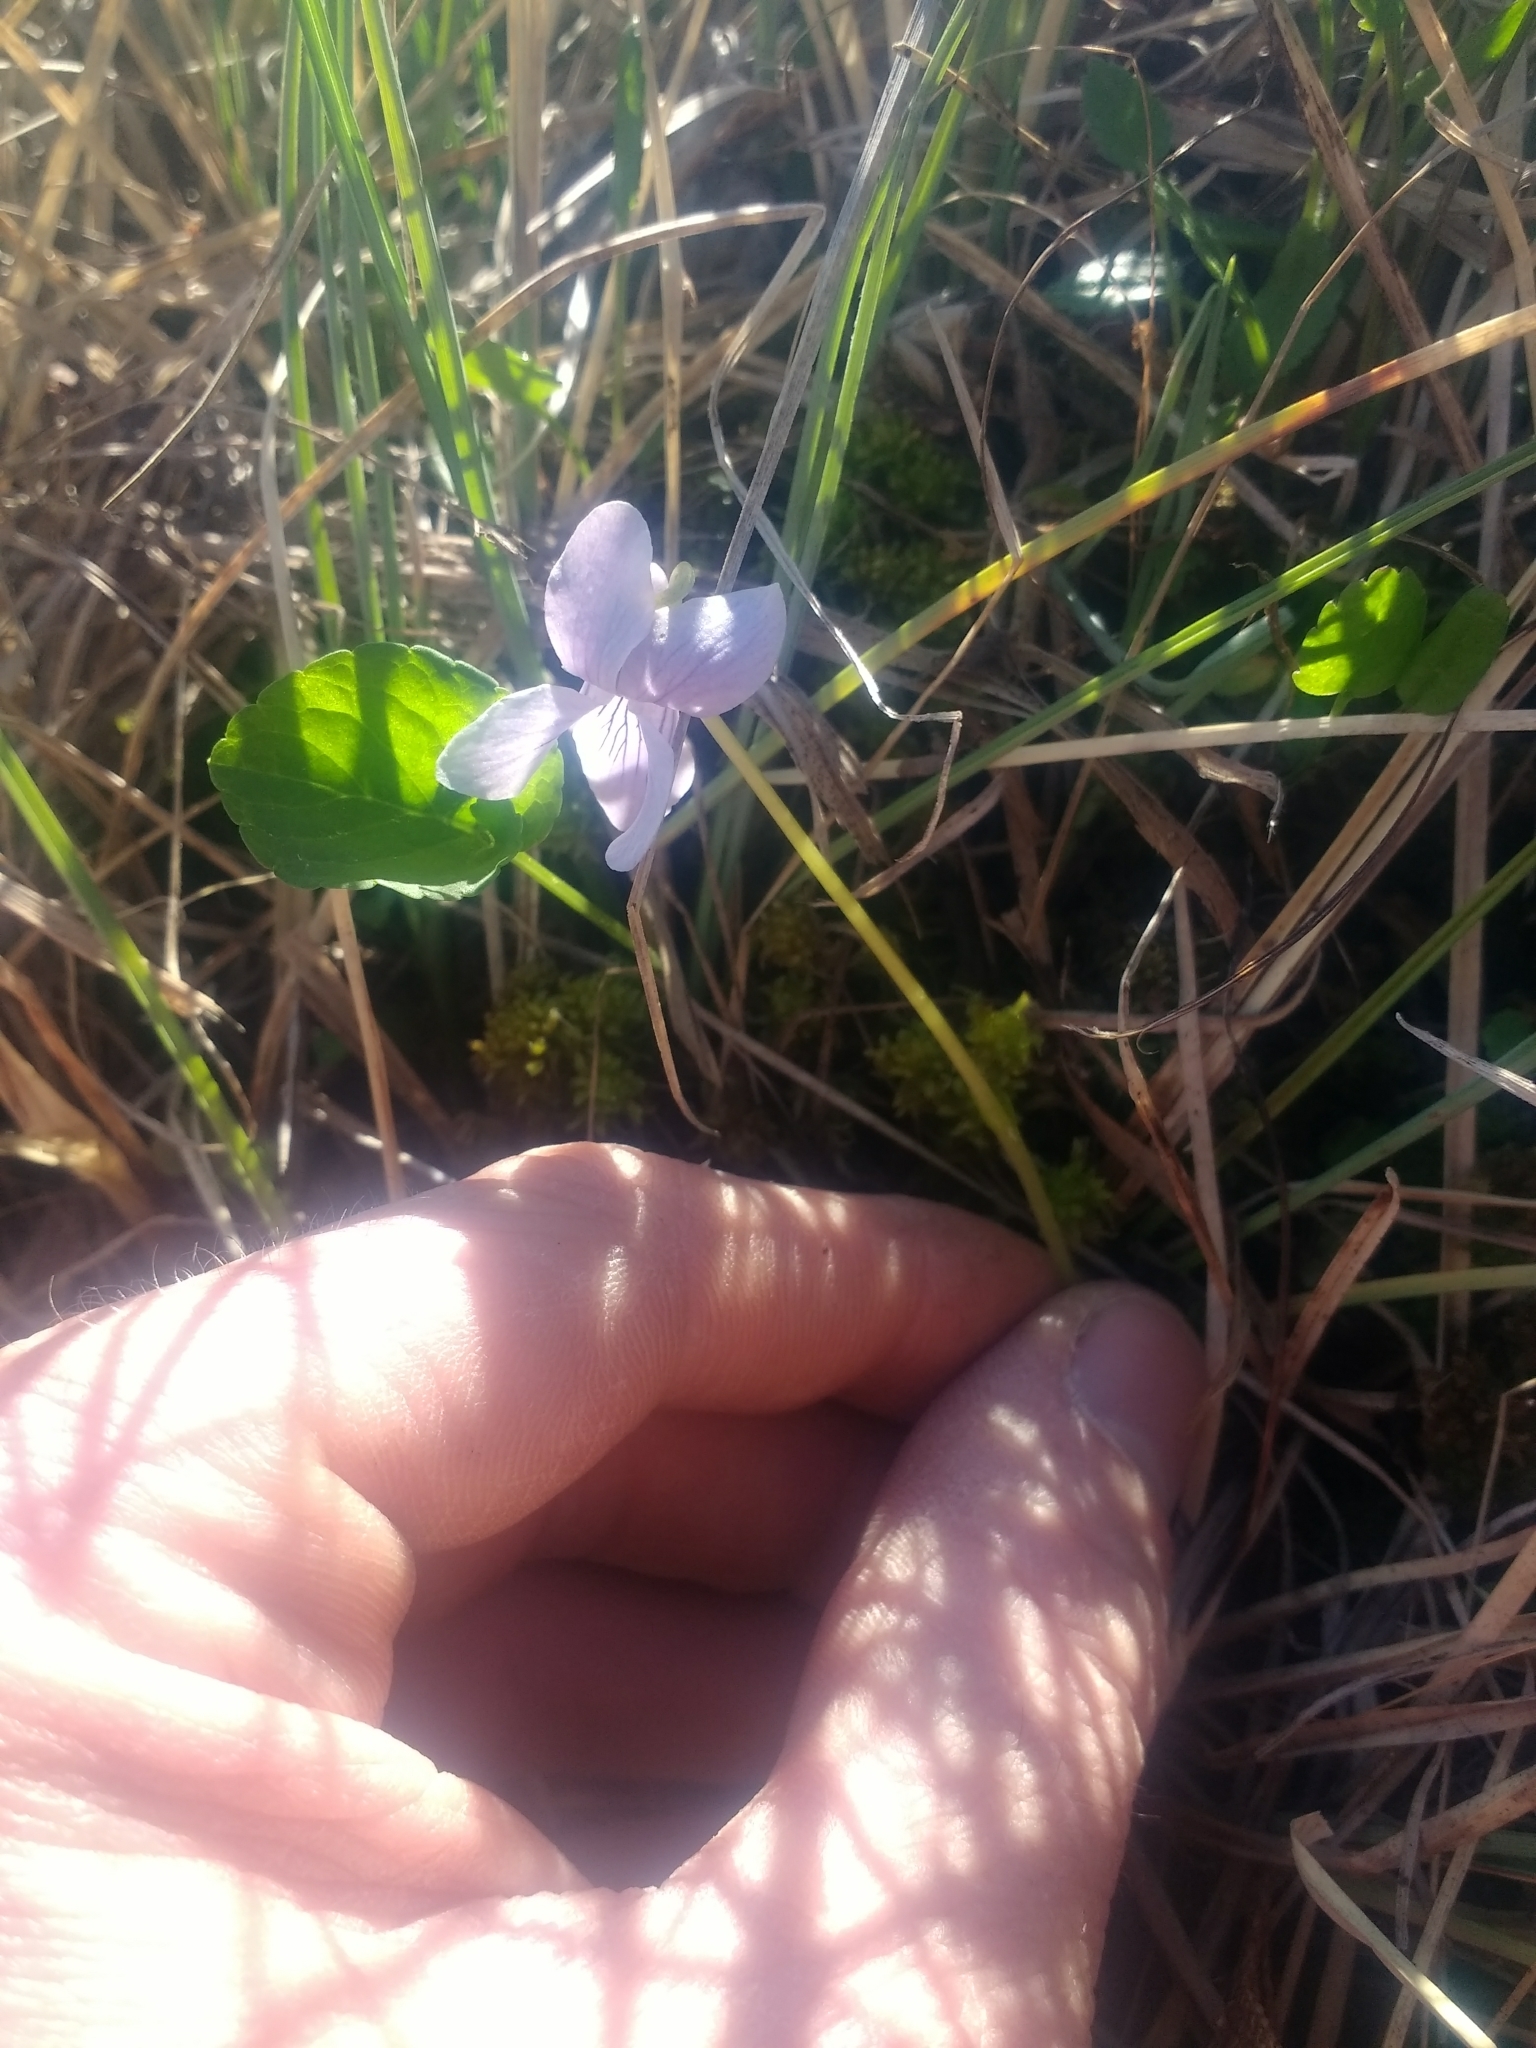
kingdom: Plantae
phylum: Tracheophyta
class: Magnoliopsida
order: Malpighiales
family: Violaceae
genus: Viola
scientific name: Viola palustris
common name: Marsh violet
